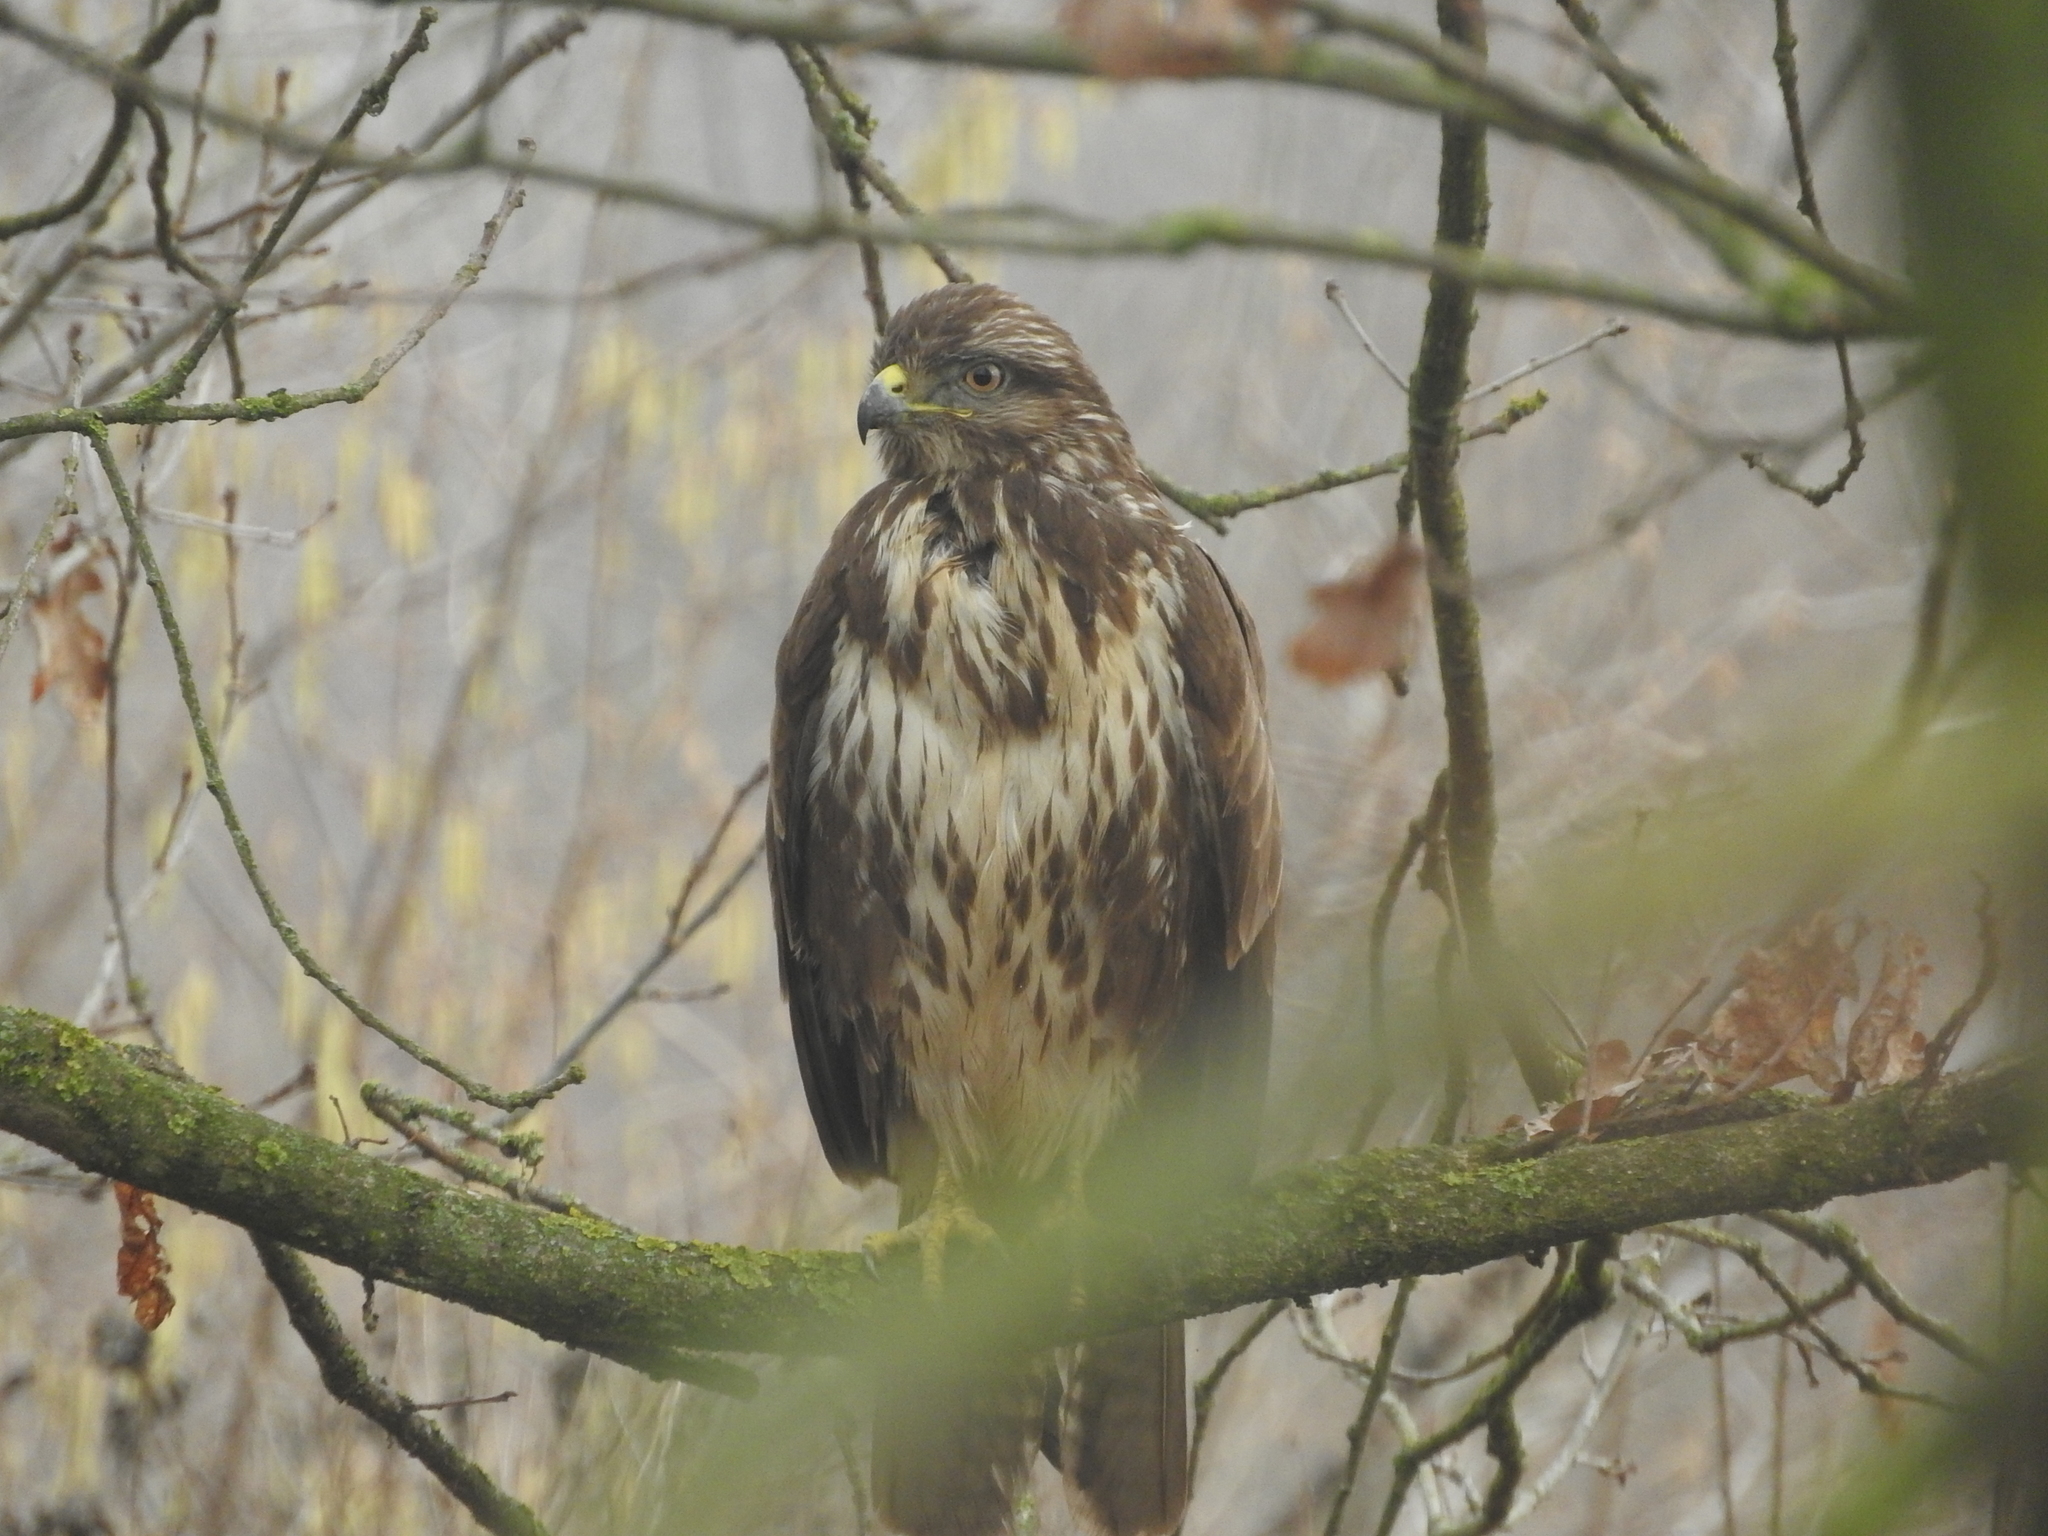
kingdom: Animalia
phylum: Chordata
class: Aves
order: Accipitriformes
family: Accipitridae
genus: Buteo
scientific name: Buteo buteo
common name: Common buzzard
